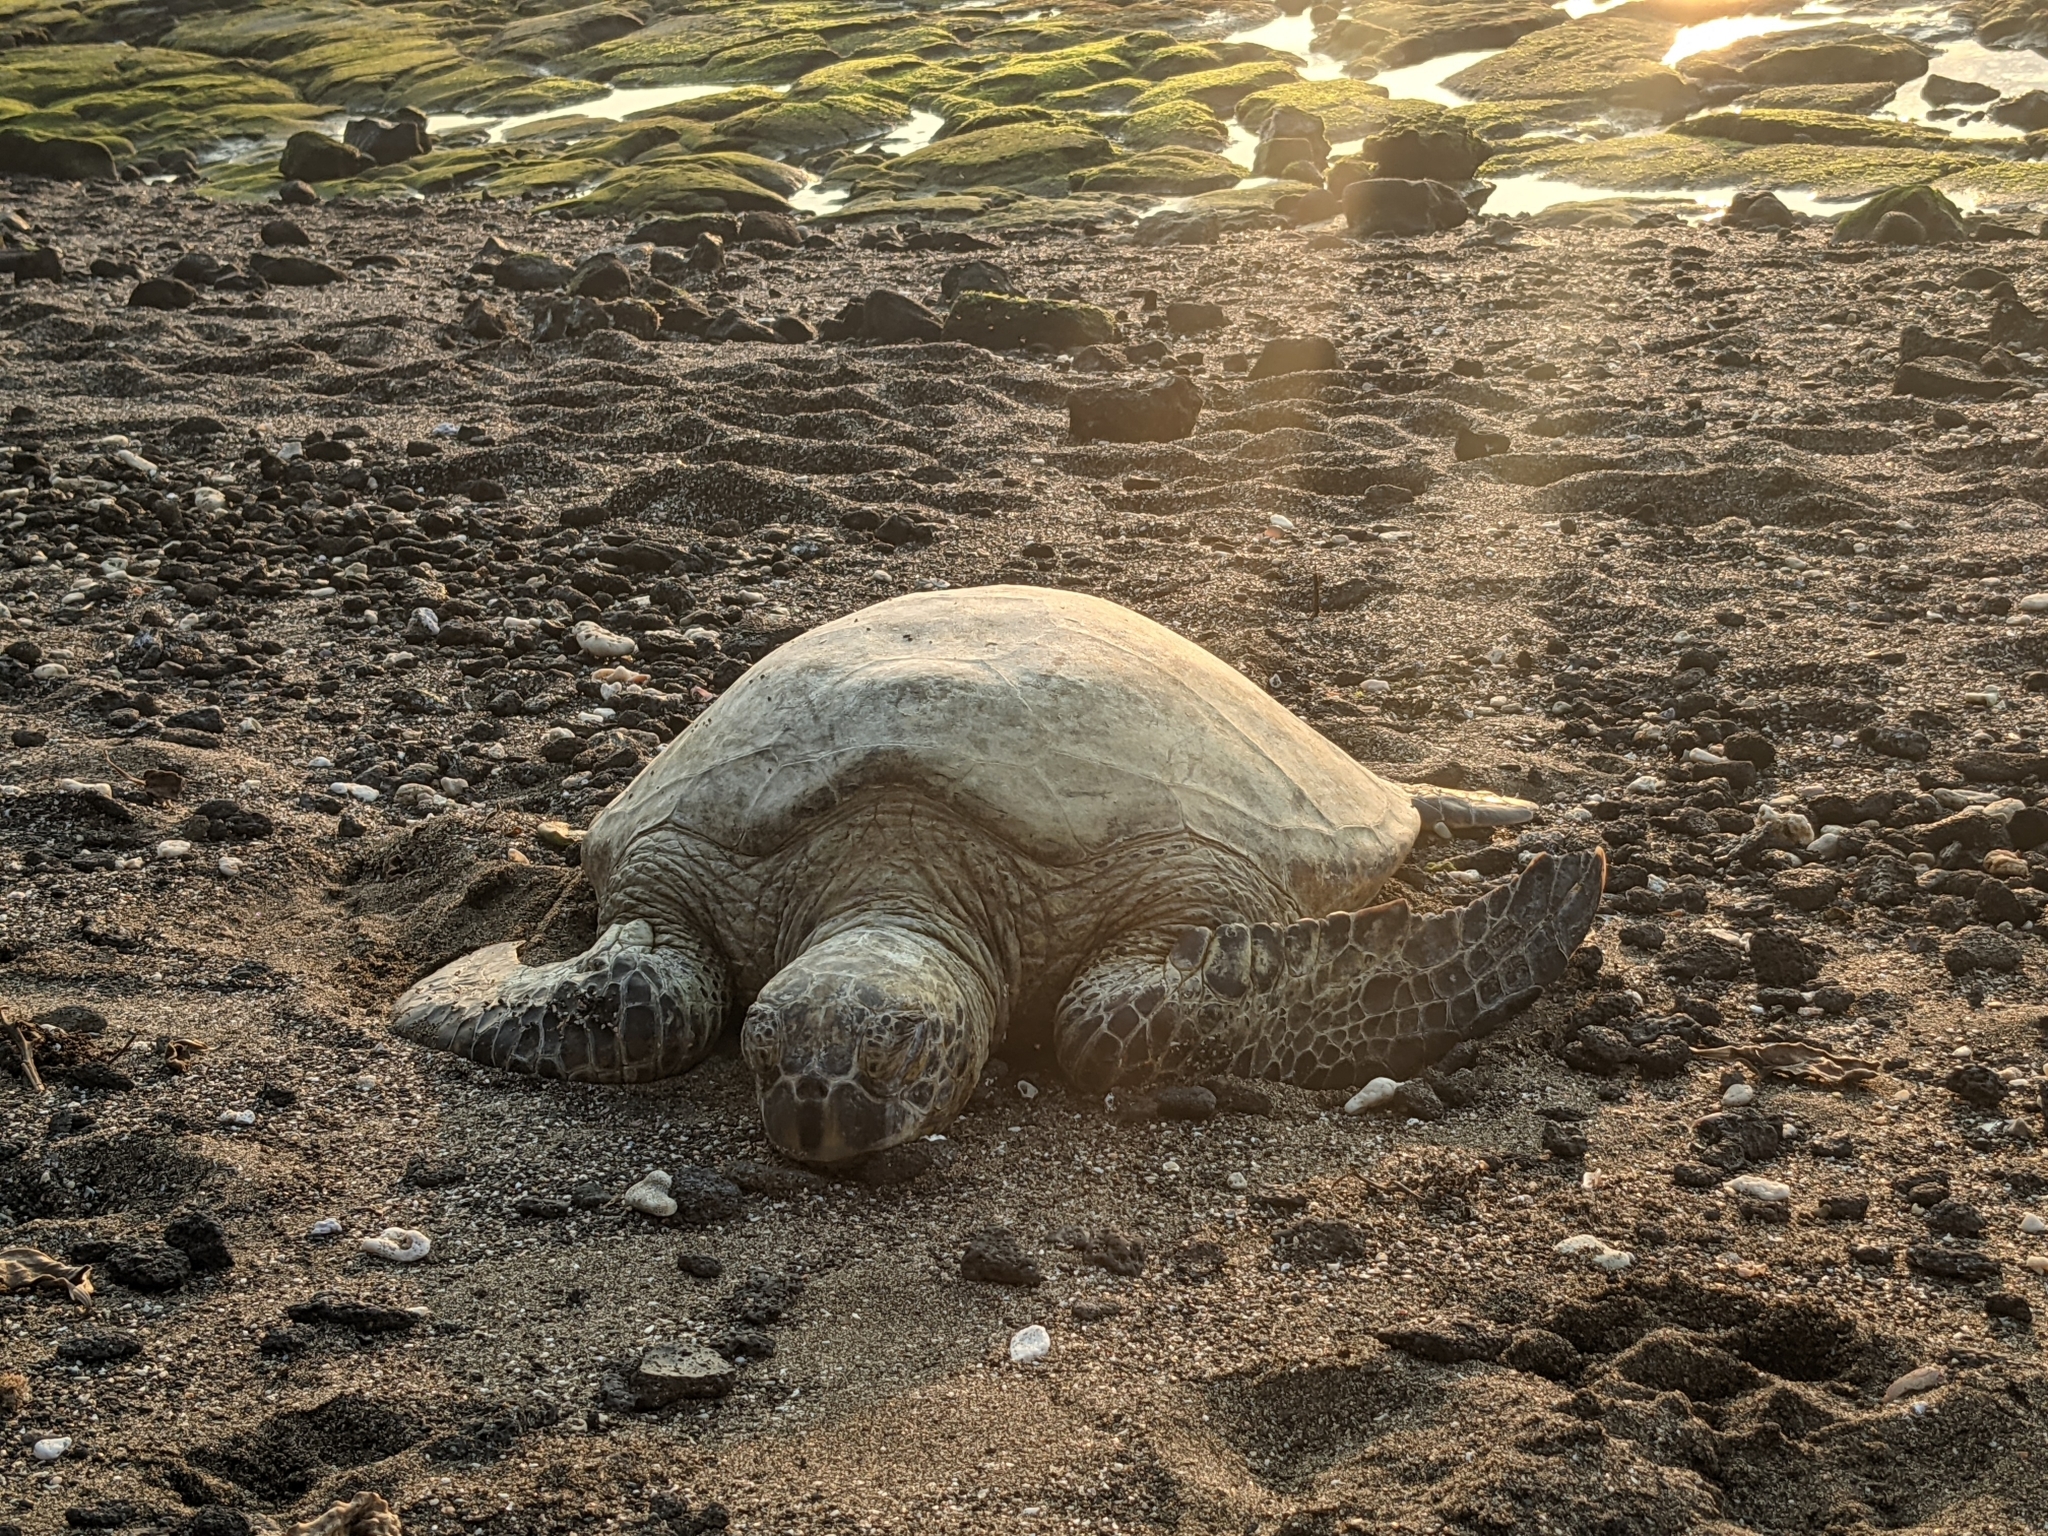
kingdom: Animalia
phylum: Chordata
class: Testudines
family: Cheloniidae
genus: Chelonia
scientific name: Chelonia mydas
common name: Green turtle
